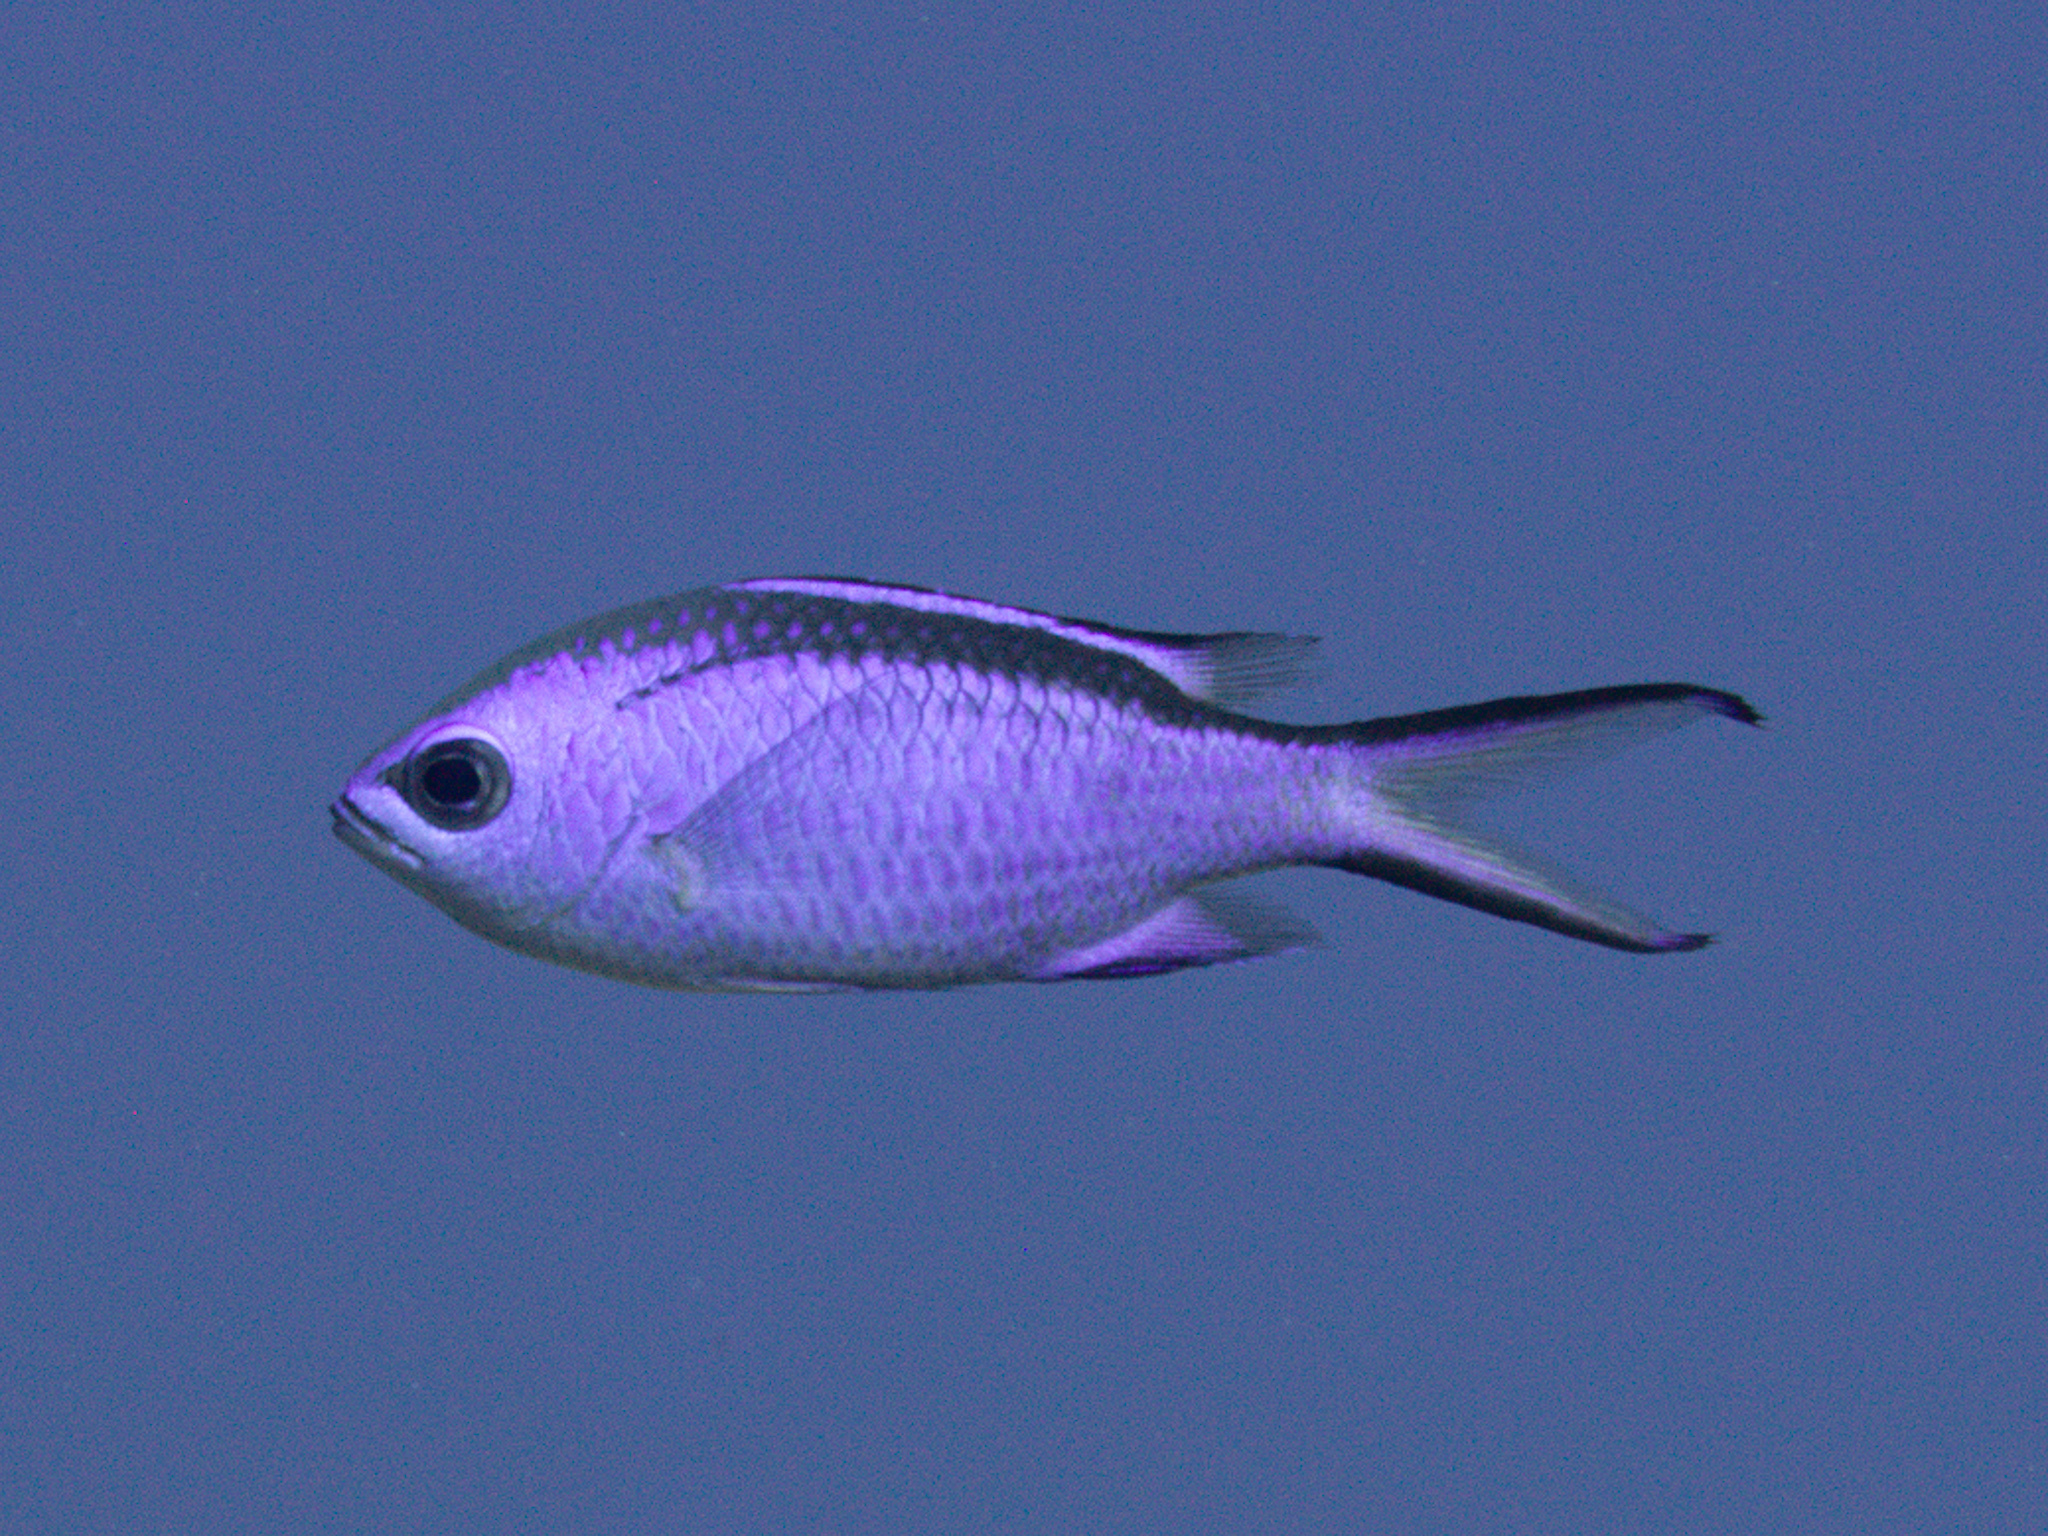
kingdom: Animalia
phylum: Chordata
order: Perciformes
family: Pomacentridae
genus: Chromis
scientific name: Chromis cyanea
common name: Blue chromis
